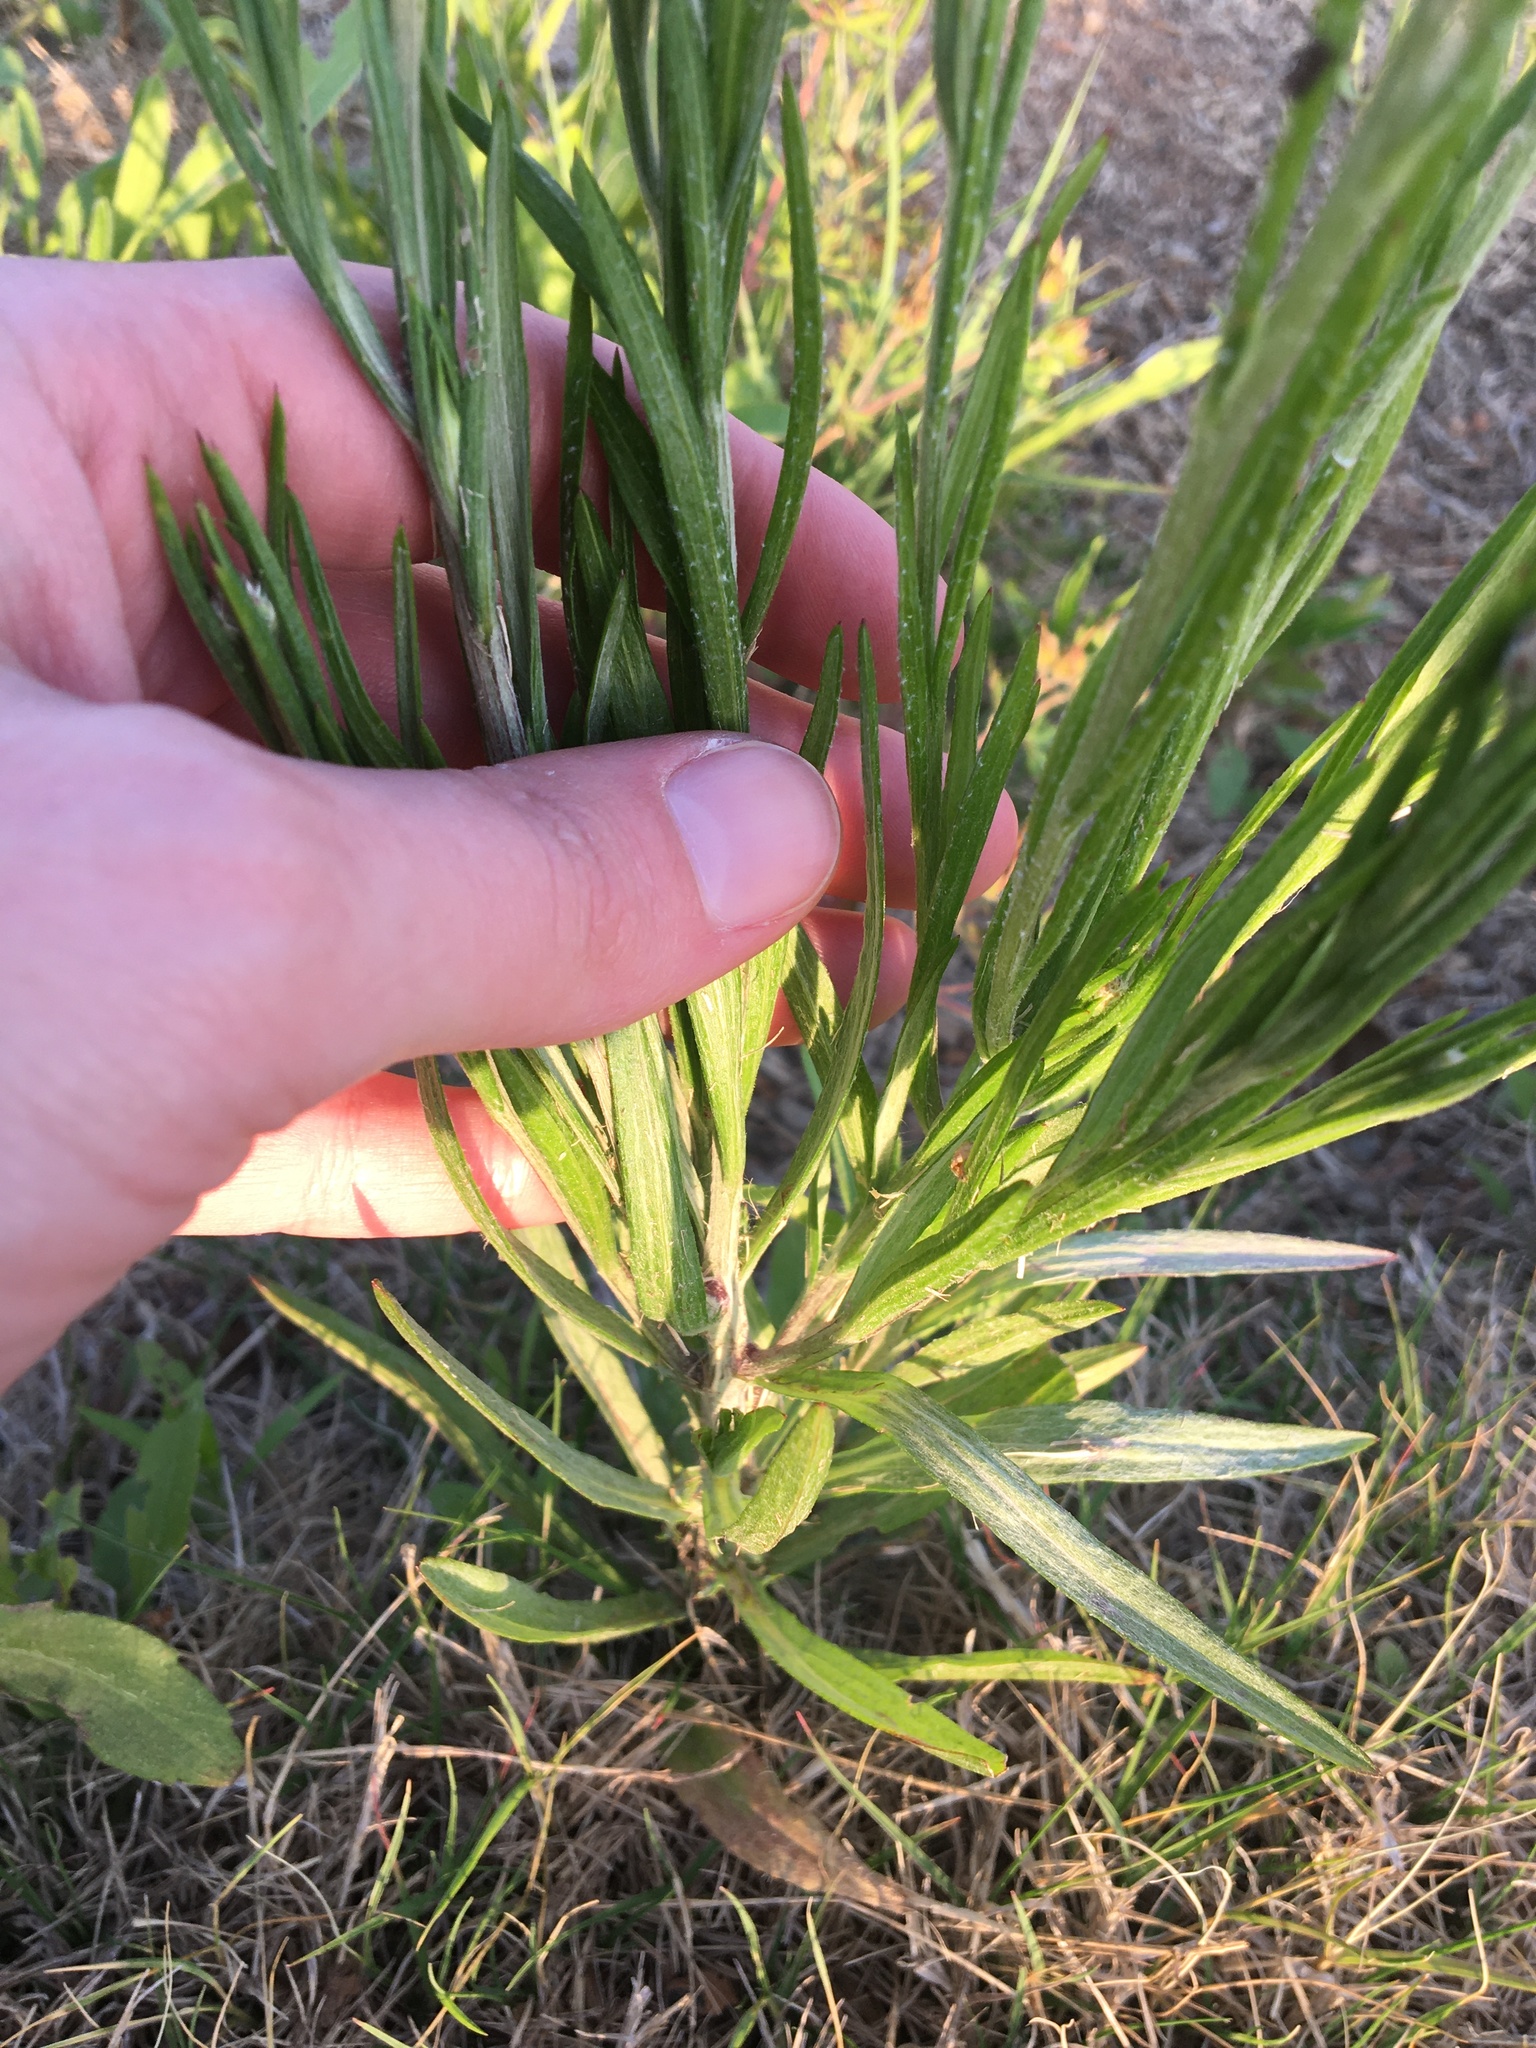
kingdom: Plantae
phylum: Tracheophyta
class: Magnoliopsida
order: Asterales
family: Asteraceae
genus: Centaurea
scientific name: Centaurea cyanus
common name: Cornflower
